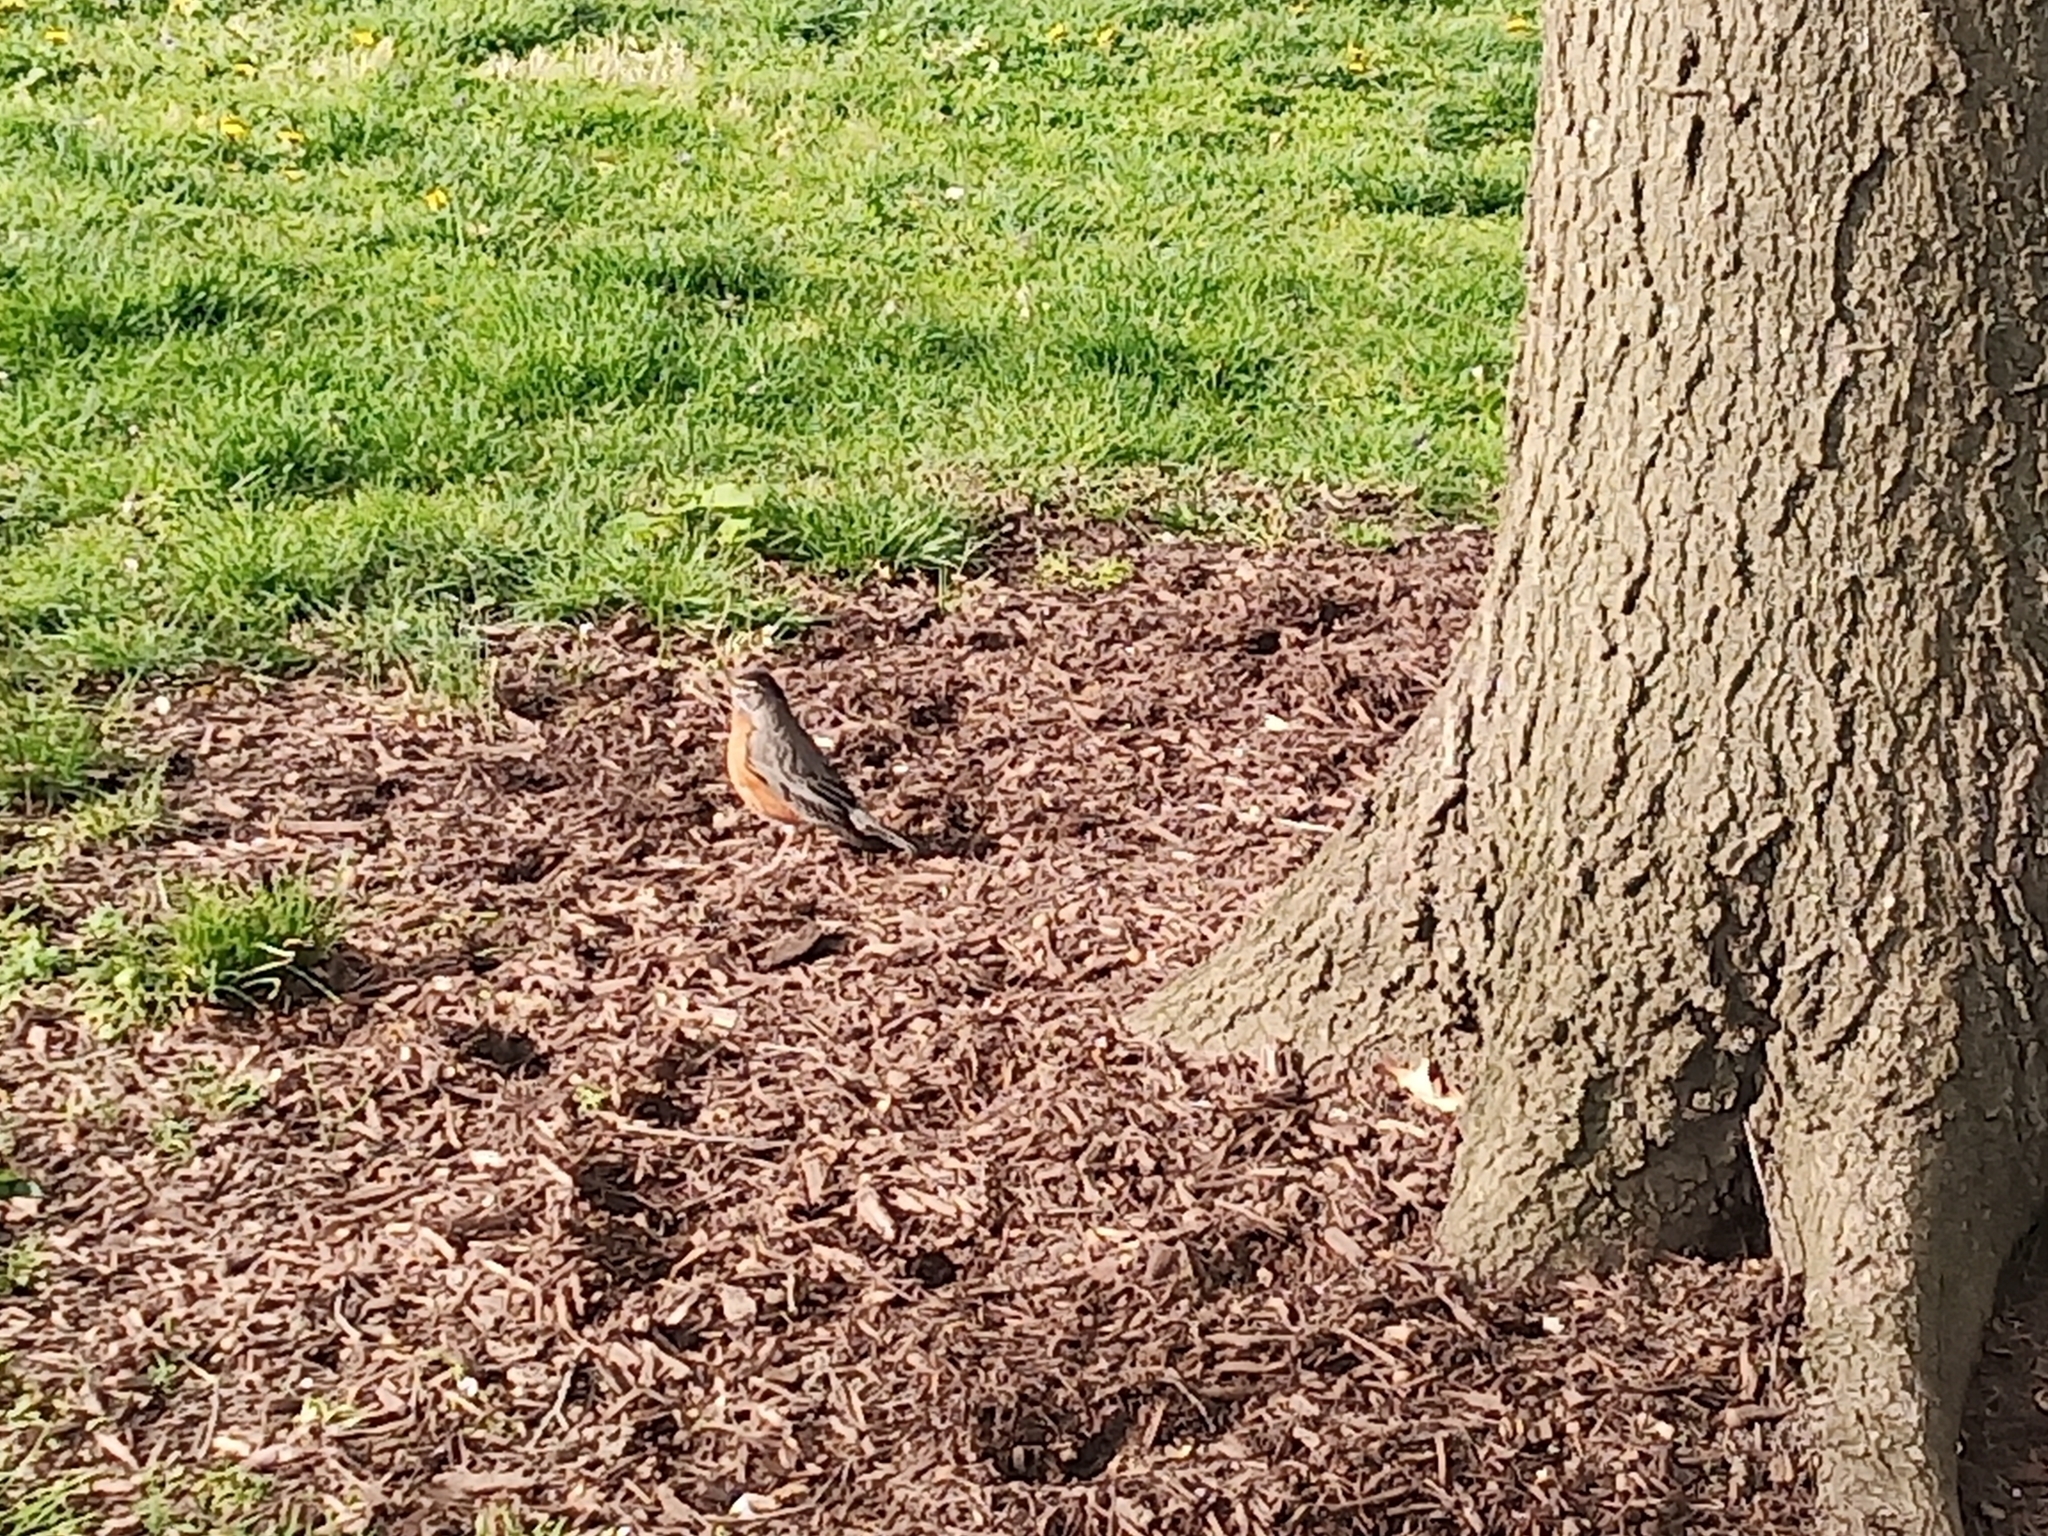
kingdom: Animalia
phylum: Chordata
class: Aves
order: Passeriformes
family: Turdidae
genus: Turdus
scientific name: Turdus migratorius
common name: American robin
